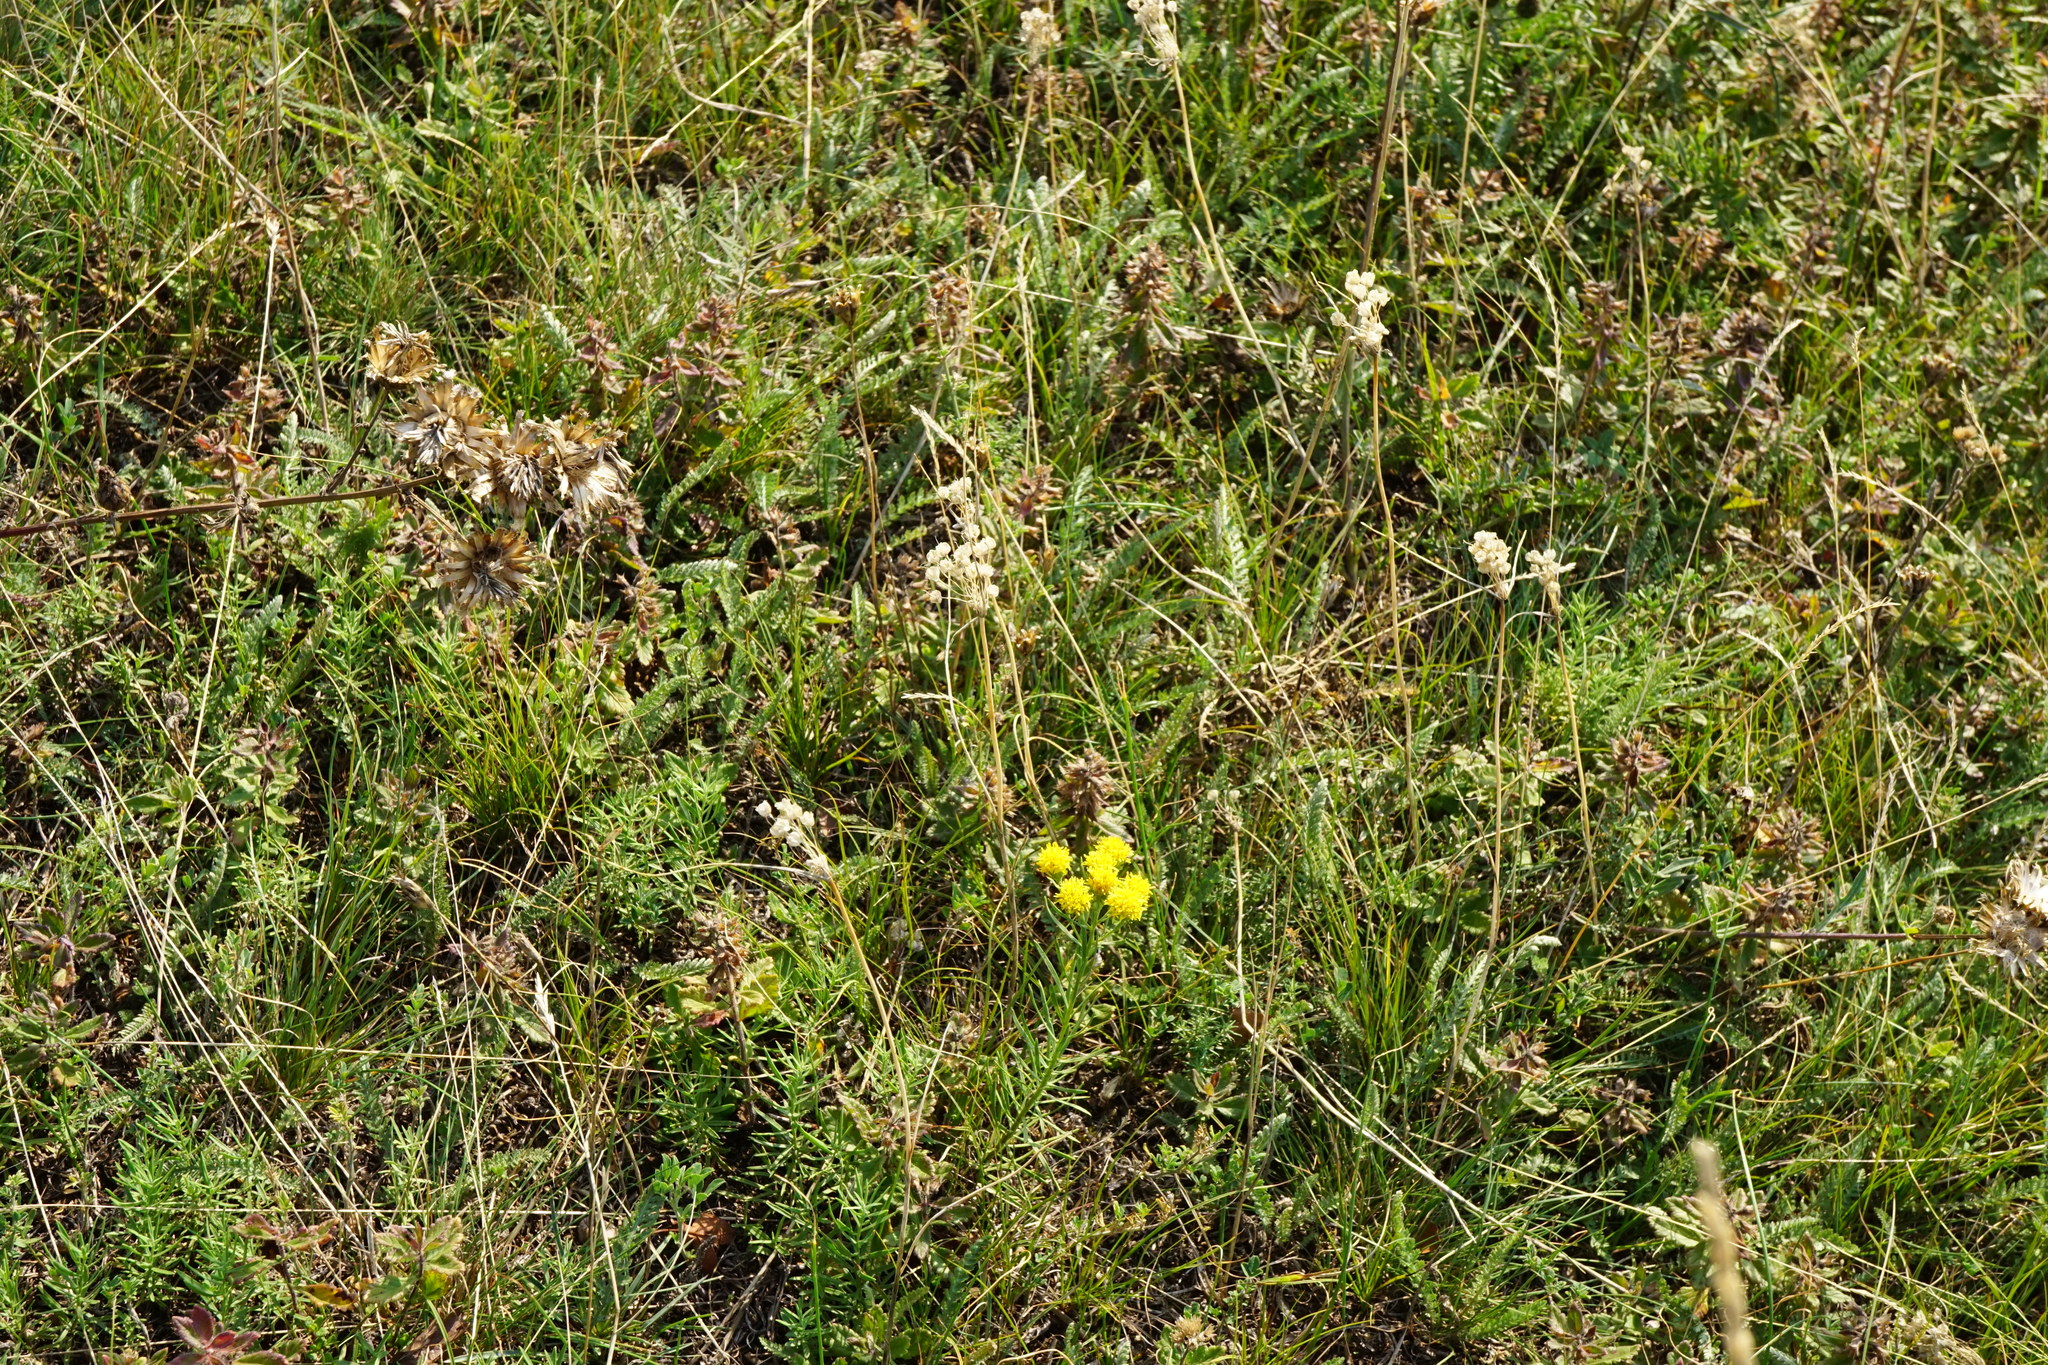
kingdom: Plantae
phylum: Tracheophyta
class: Liliopsida
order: Asparagales
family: Amaryllidaceae
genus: Allium
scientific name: Allium flavum
